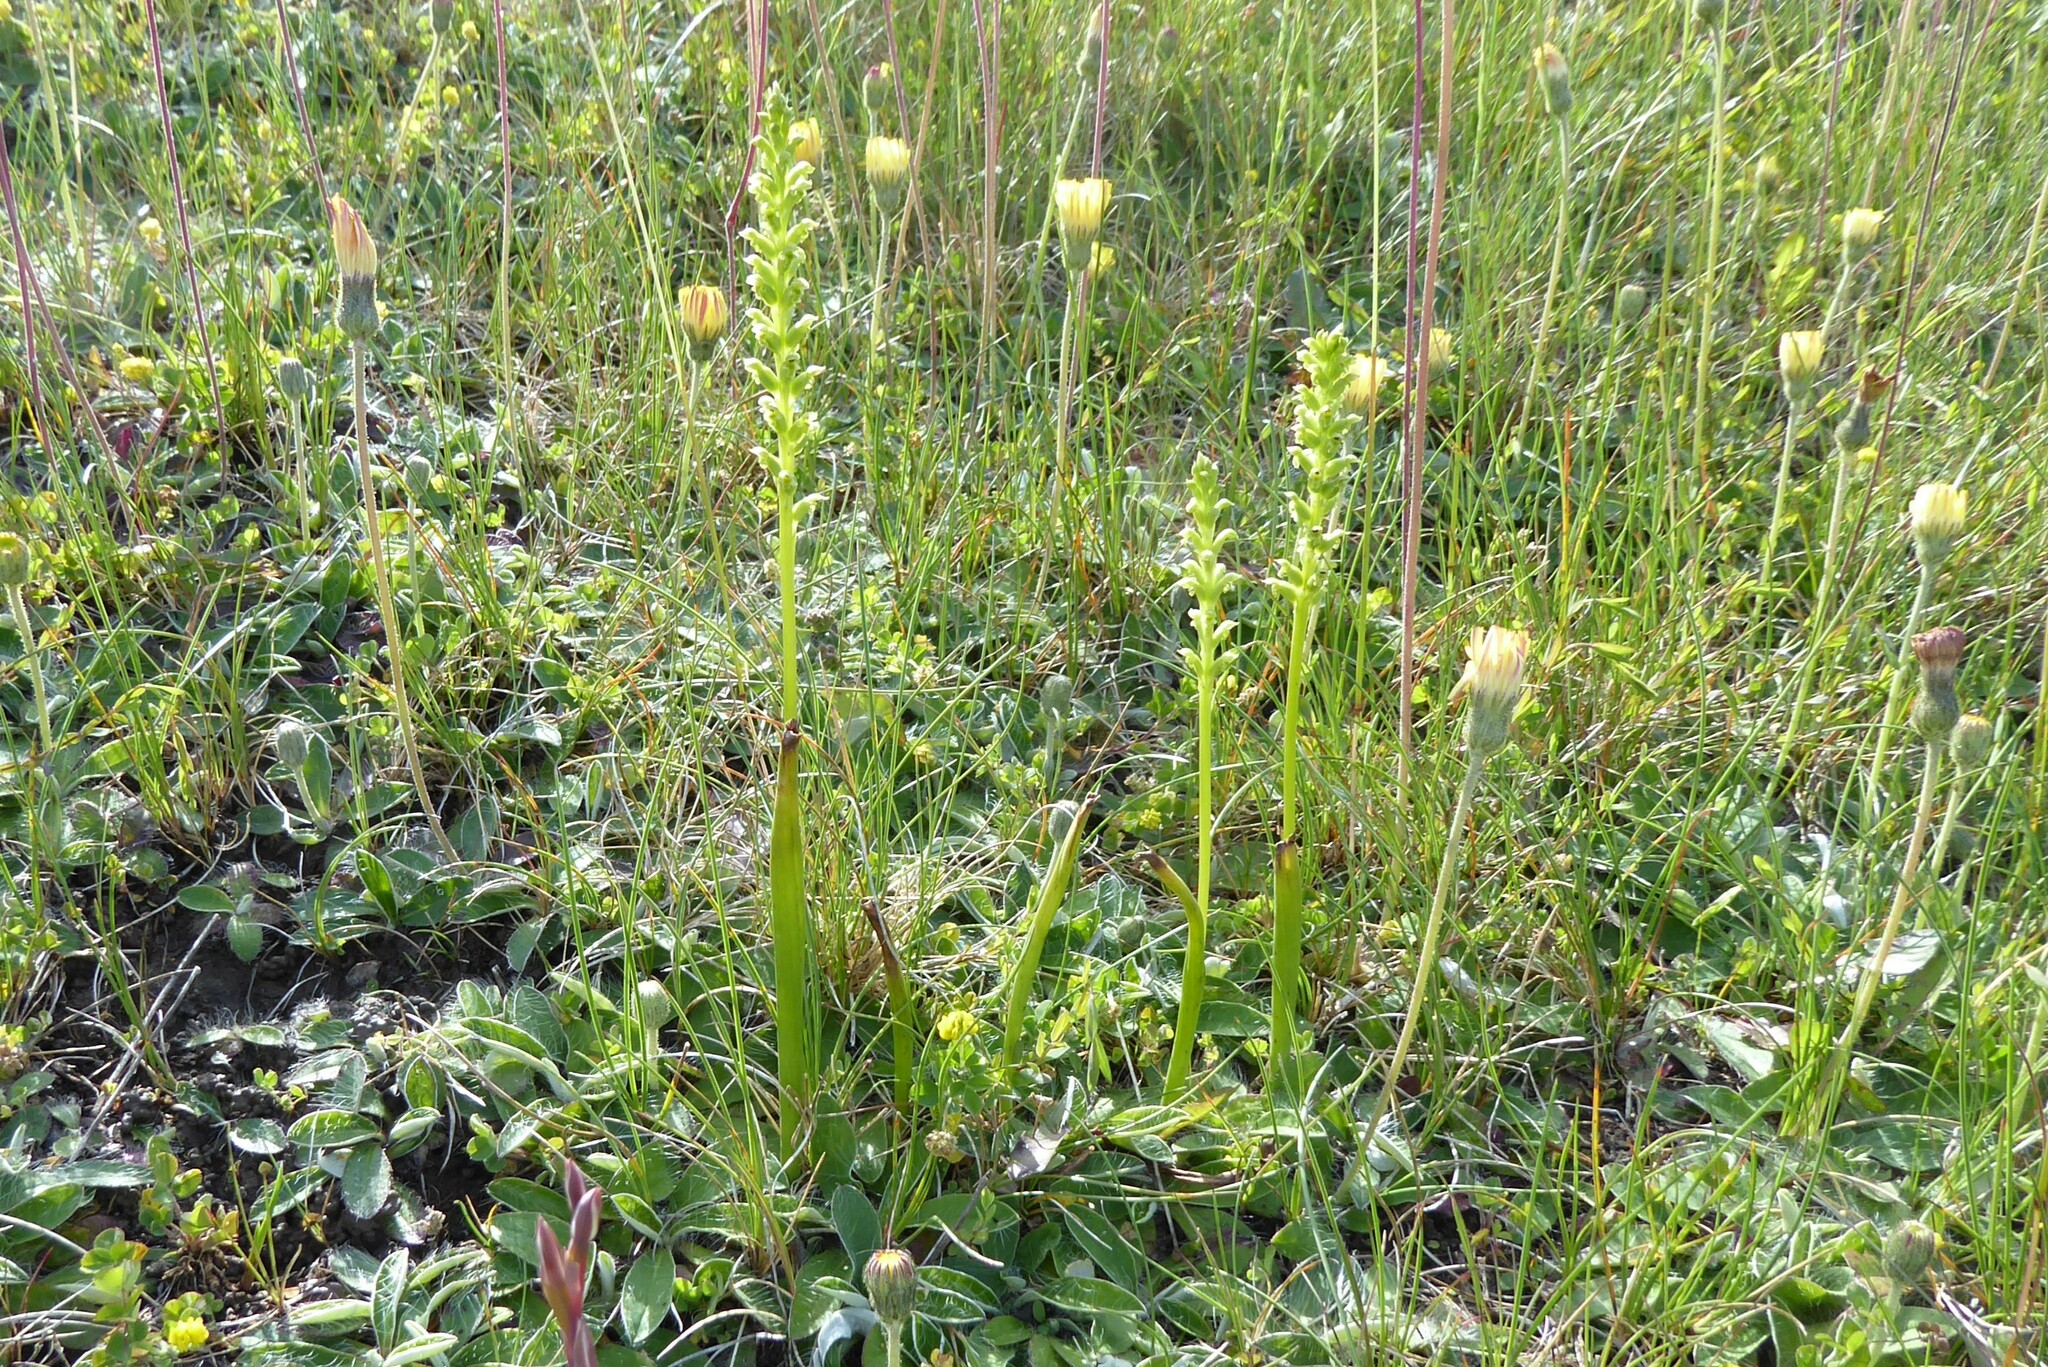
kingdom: Plantae
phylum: Tracheophyta
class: Liliopsida
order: Asparagales
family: Orchidaceae
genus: Microtis
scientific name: Microtis unifolia
